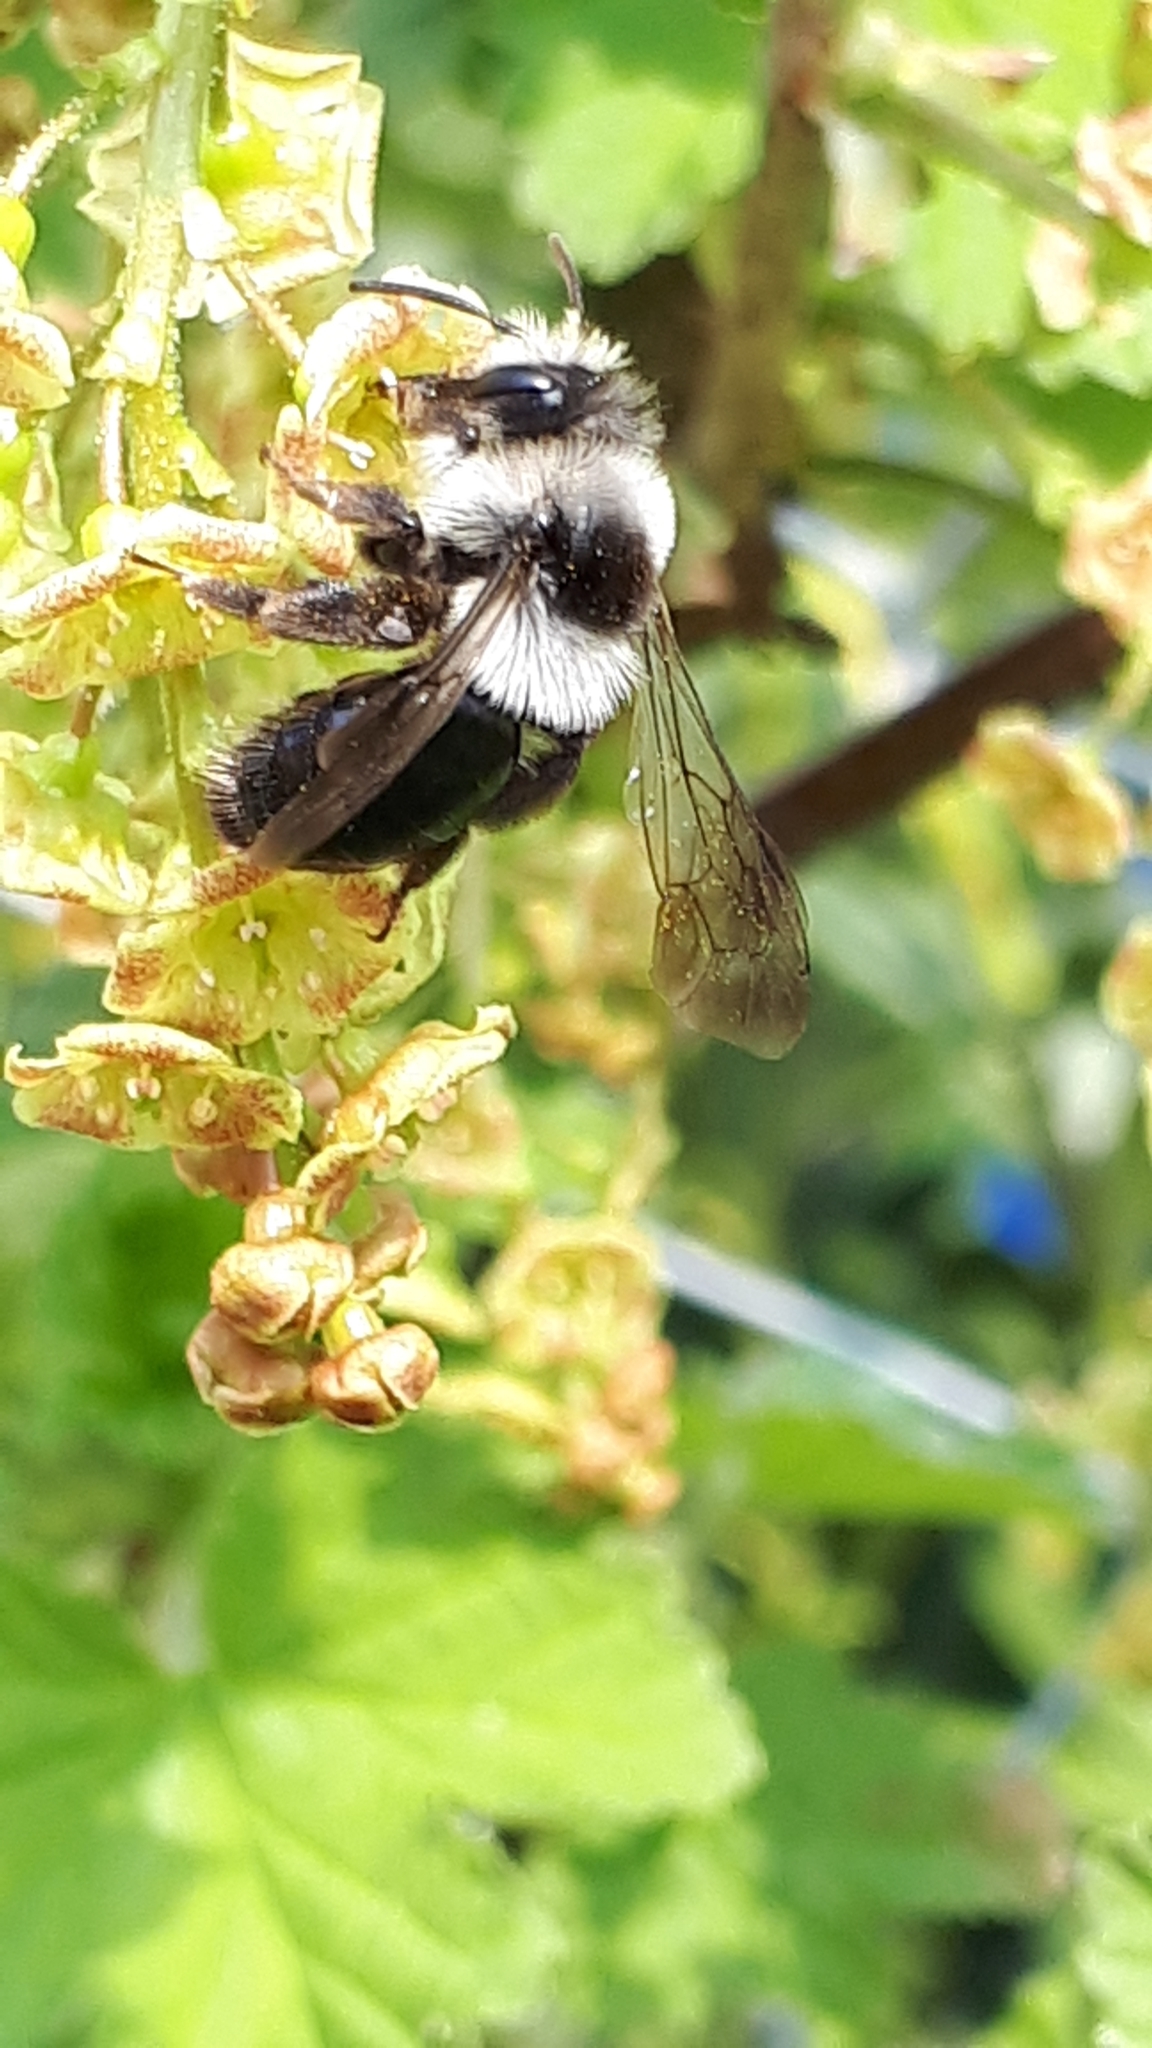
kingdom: Animalia
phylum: Arthropoda
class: Insecta
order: Hymenoptera
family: Andrenidae
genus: Andrena
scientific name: Andrena cineraria
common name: Ashy mining bee
